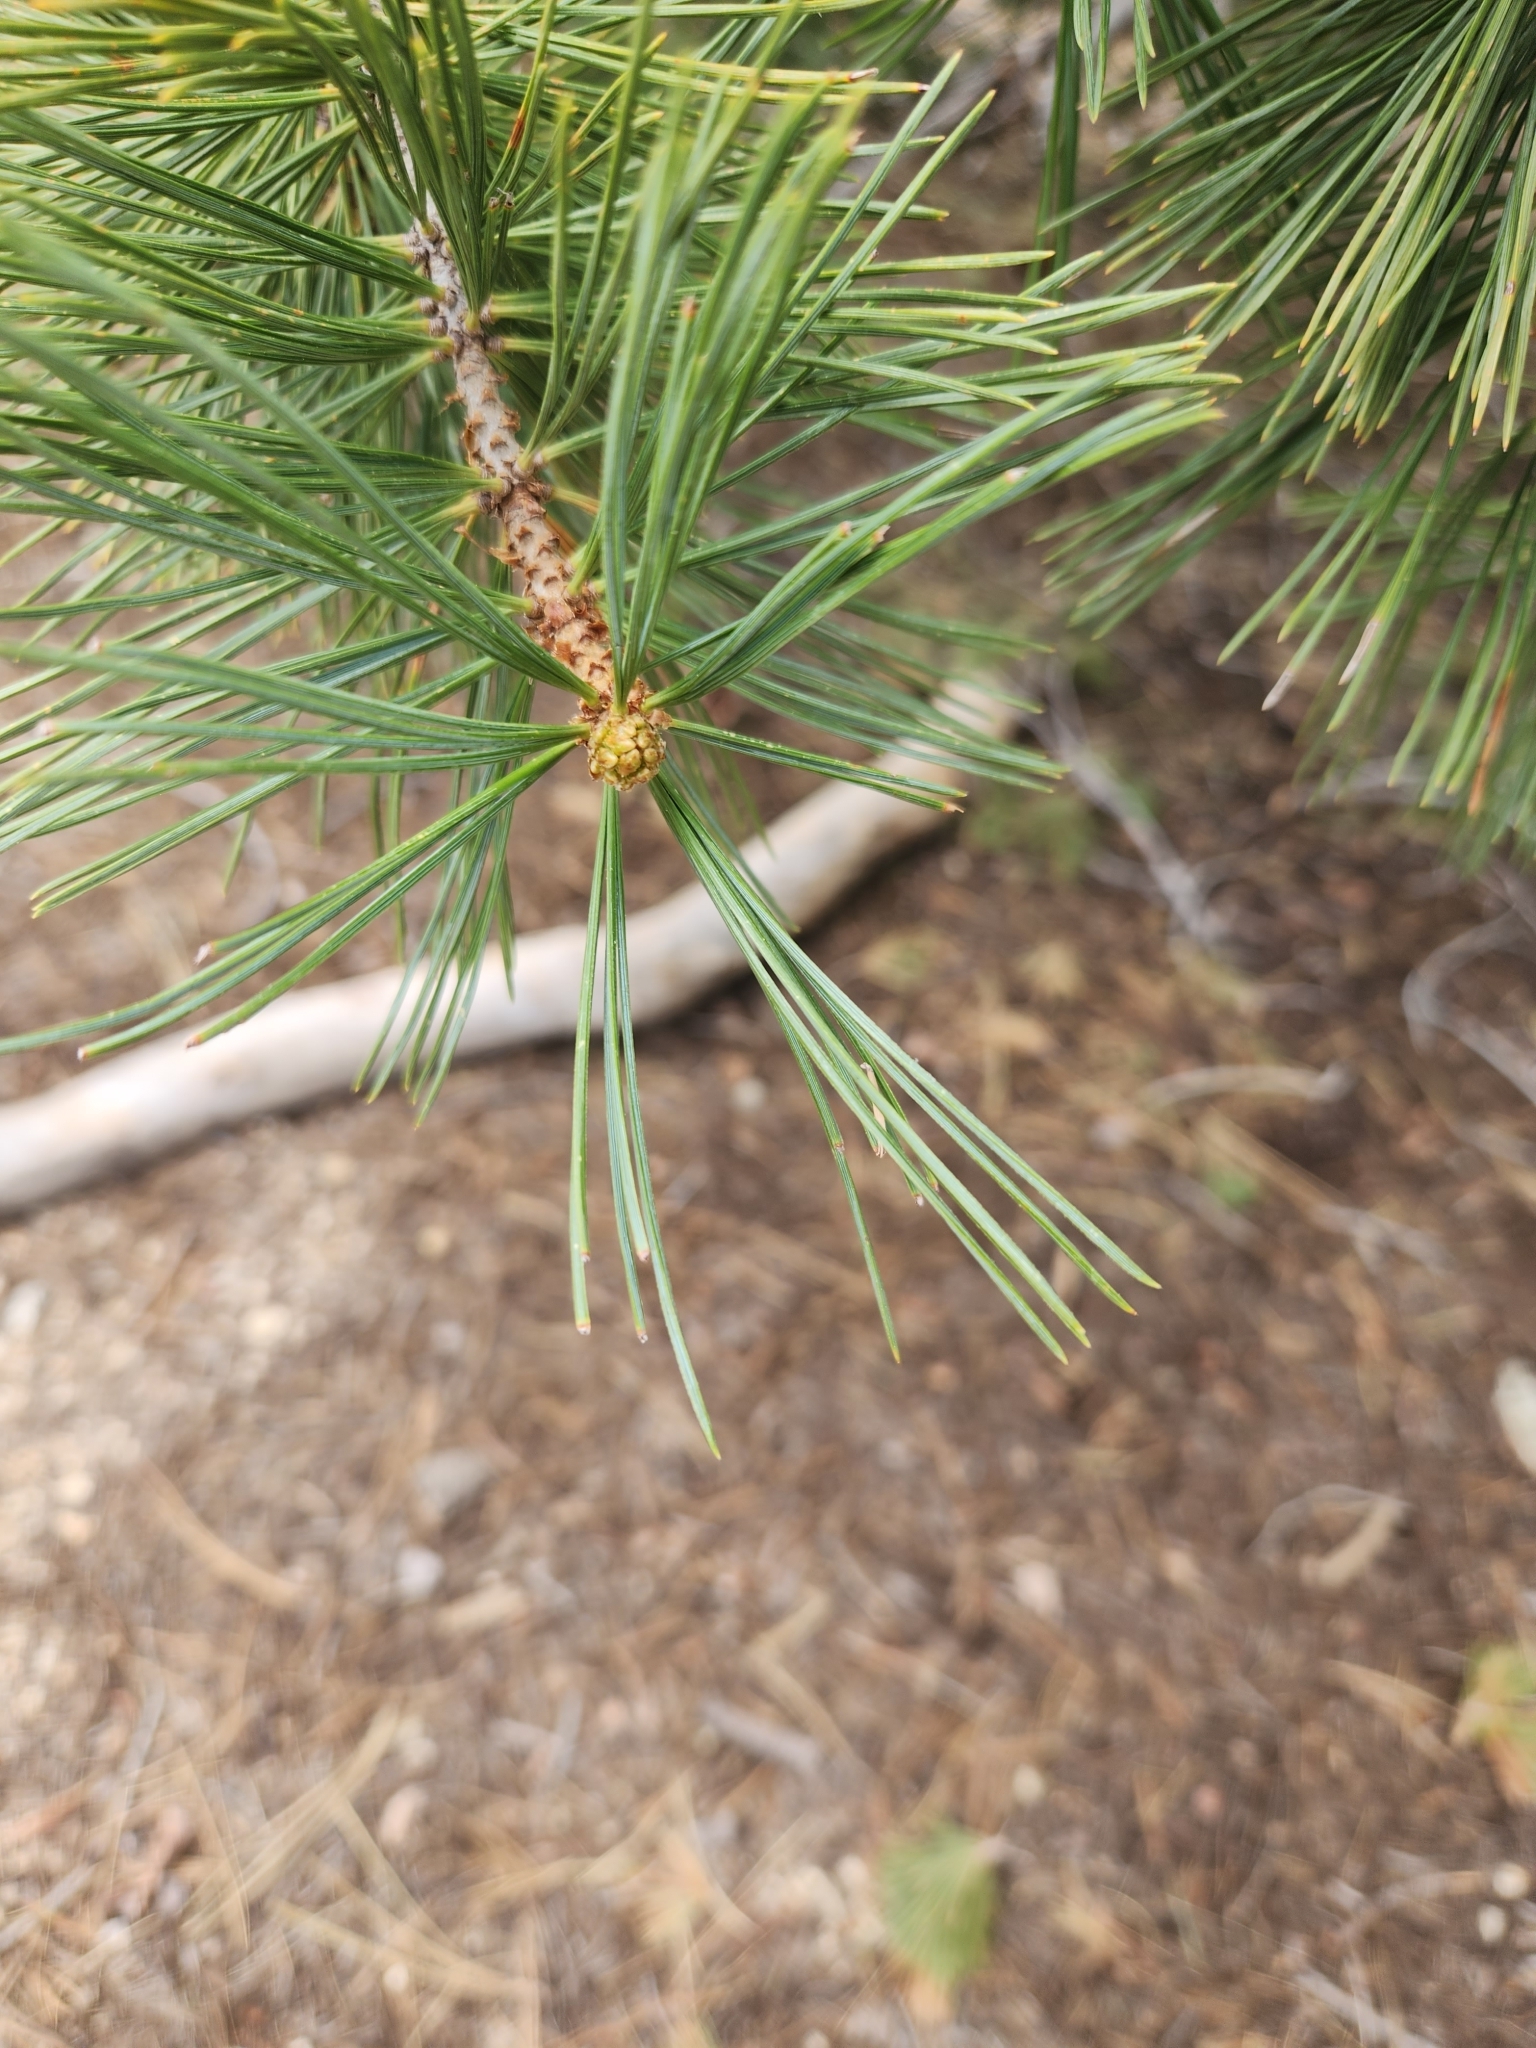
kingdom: Plantae
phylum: Tracheophyta
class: Pinopsida
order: Pinales
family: Pinaceae
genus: Pinus
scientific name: Pinus lambertiana
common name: Sugar pine
